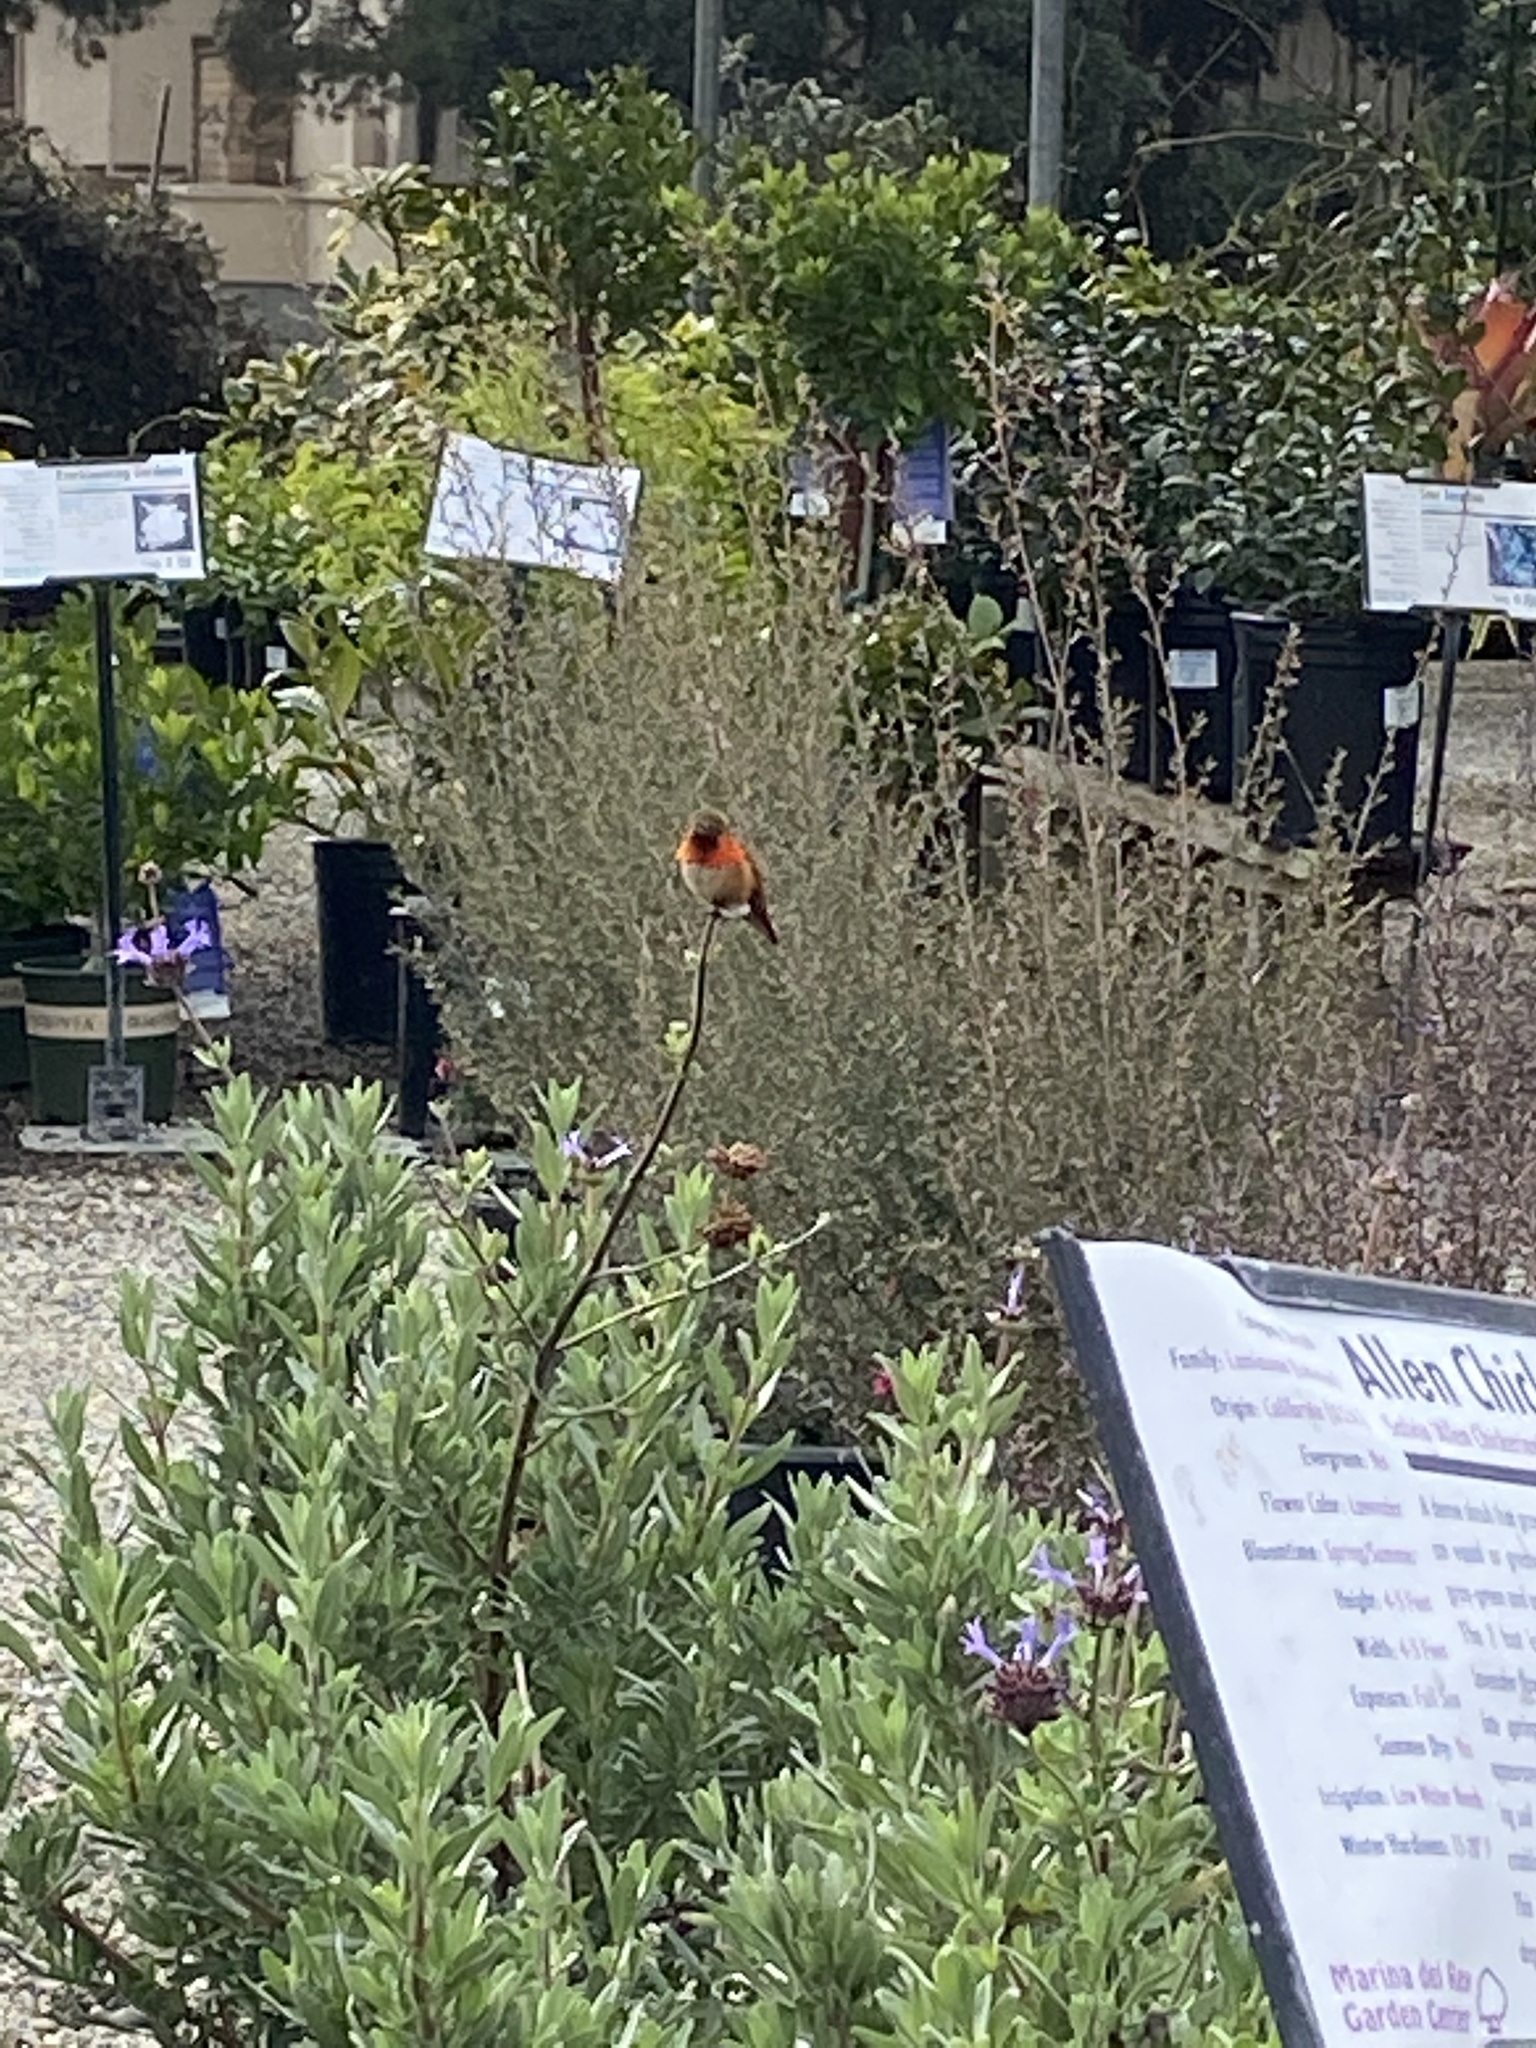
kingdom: Animalia
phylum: Chordata
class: Aves
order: Apodiformes
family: Trochilidae
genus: Selasphorus
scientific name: Selasphorus sasin
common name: Allen's hummingbird
